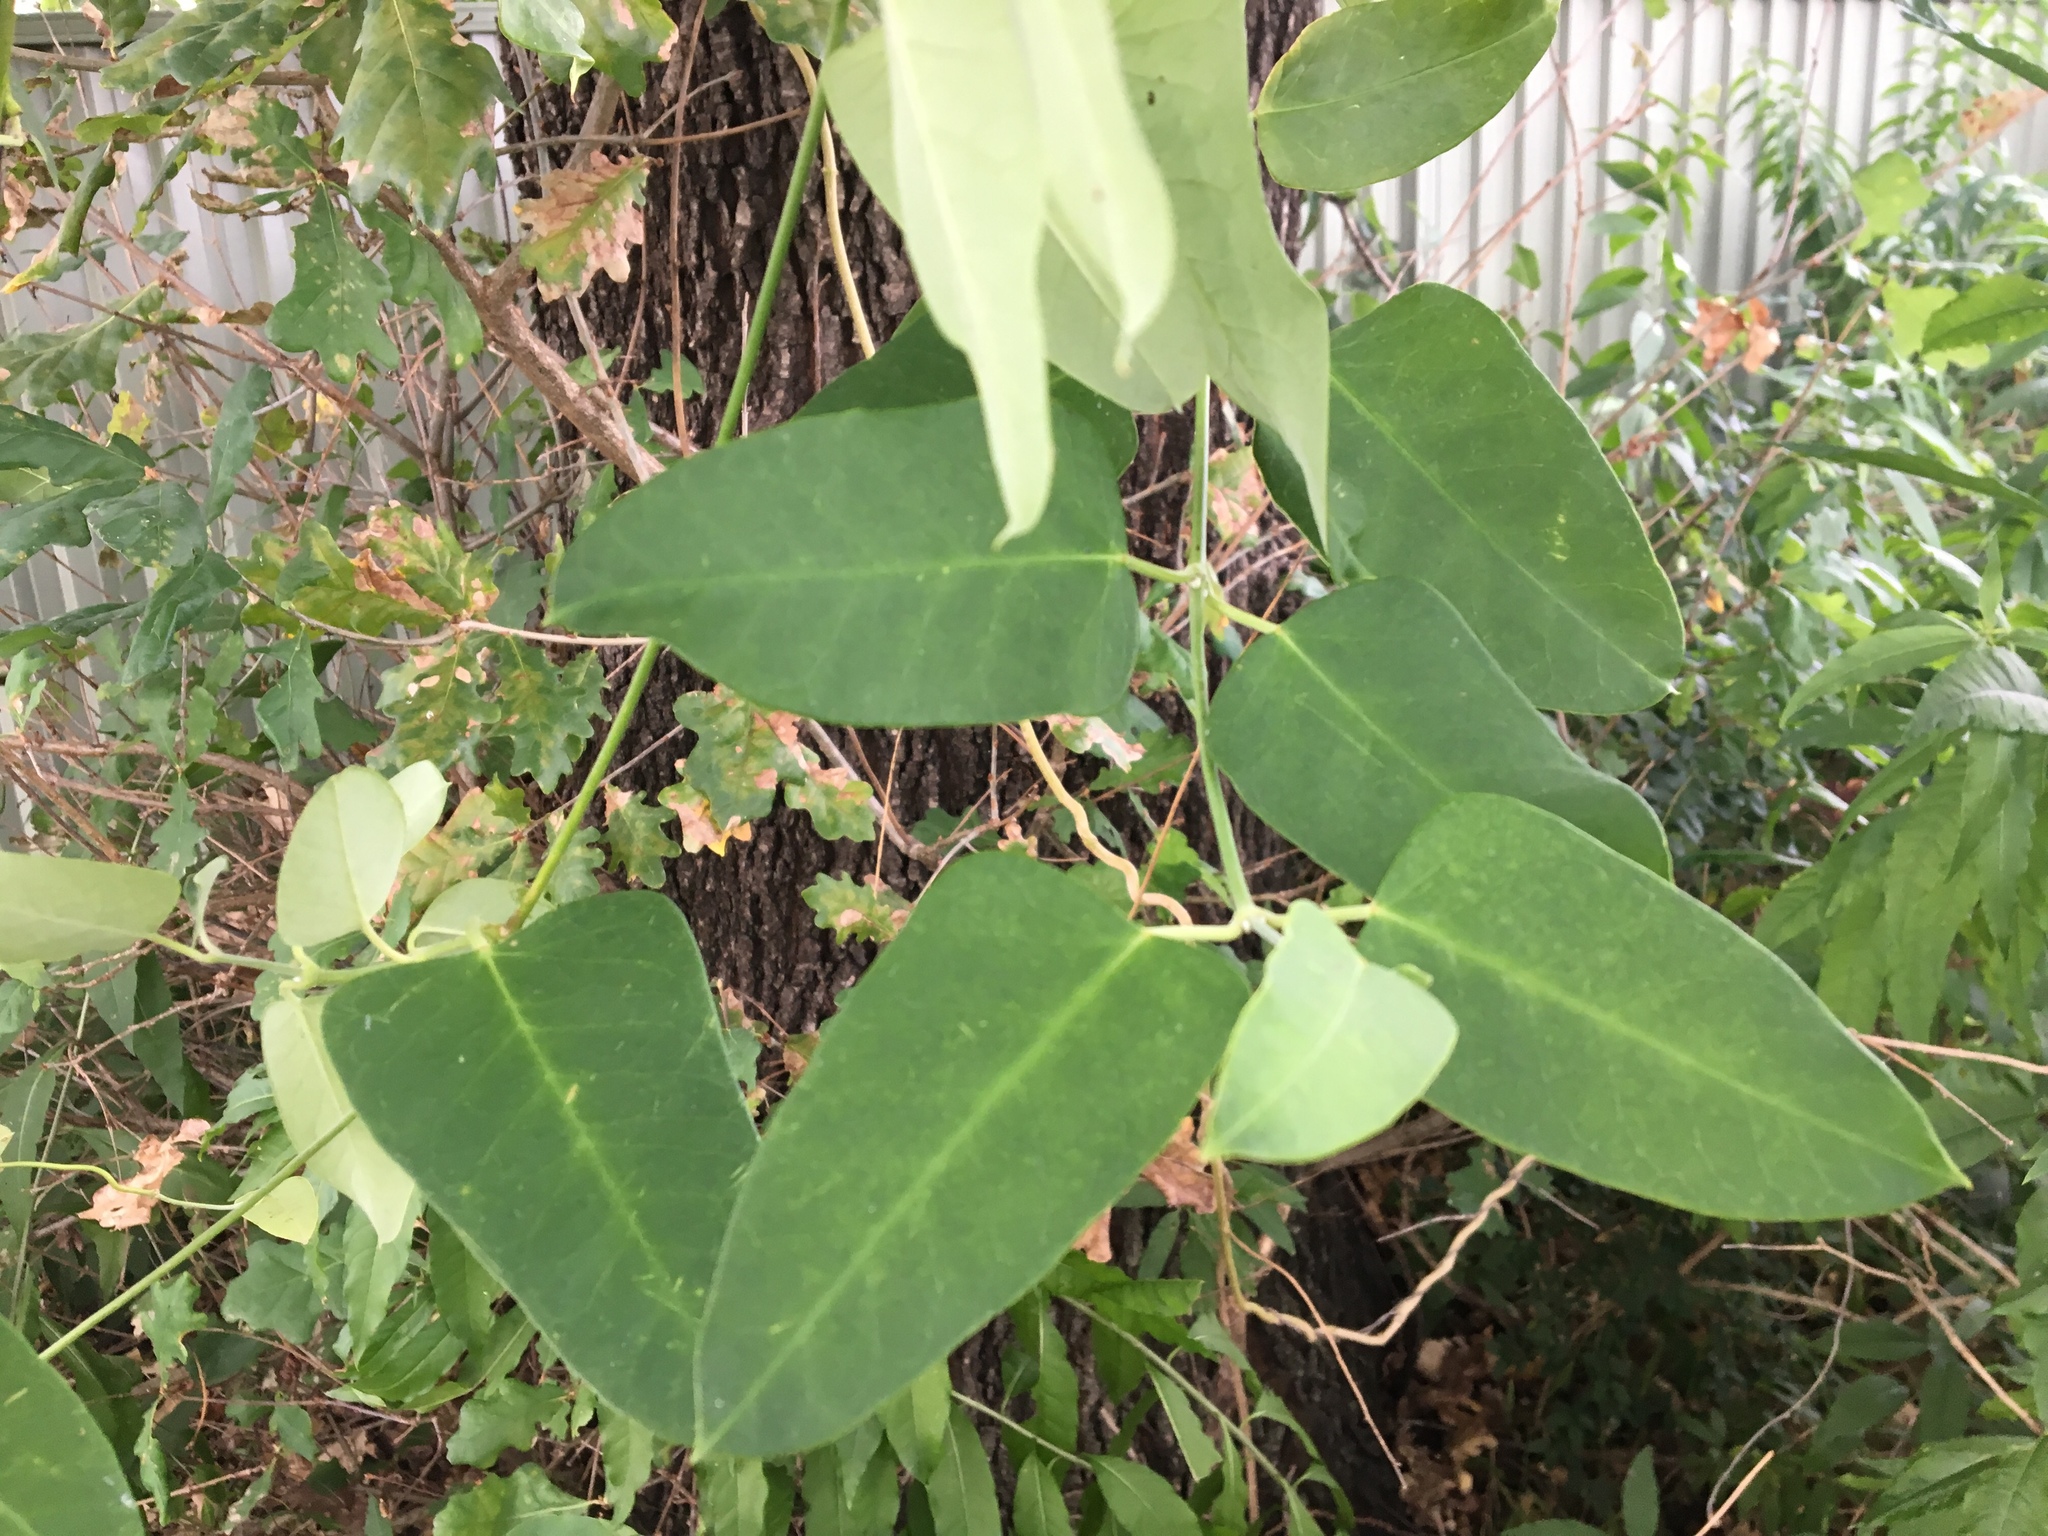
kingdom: Plantae
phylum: Tracheophyta
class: Magnoliopsida
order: Gentianales
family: Apocynaceae
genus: Araujia
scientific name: Araujia sericifera
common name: White bladderflower
